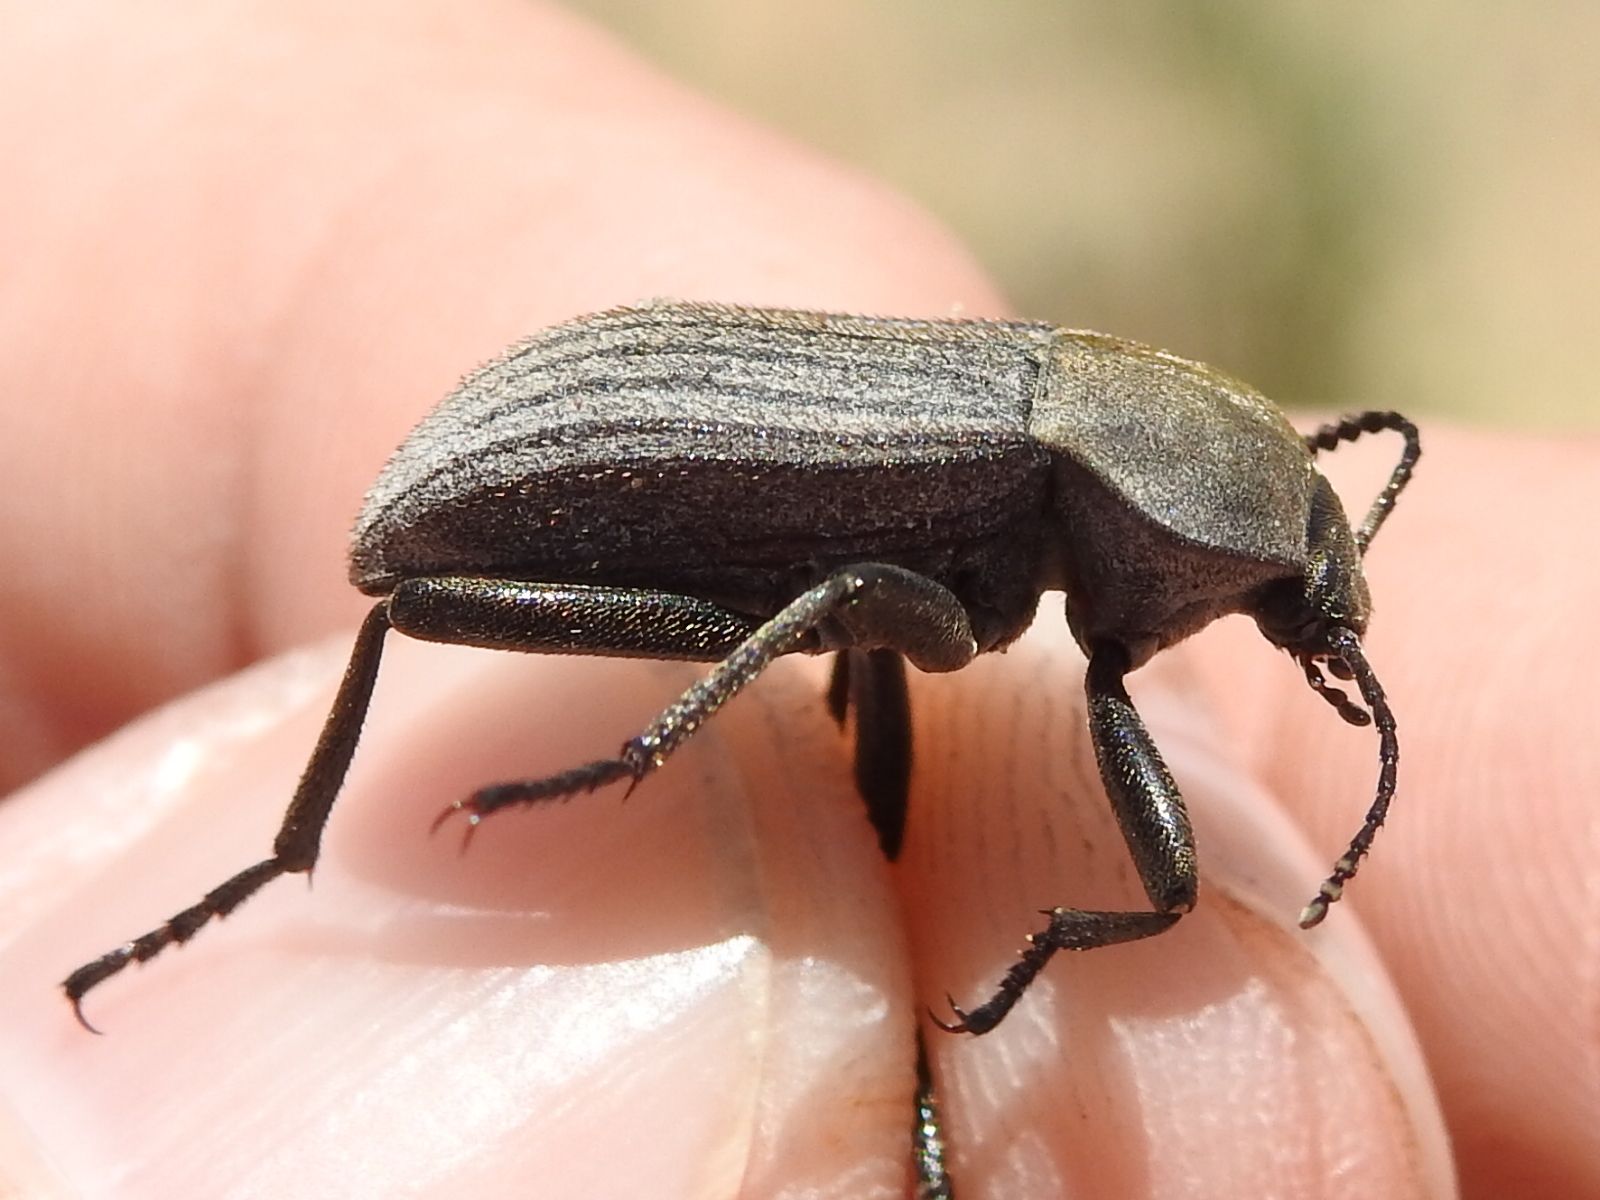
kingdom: Animalia
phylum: Arthropoda
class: Insecta
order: Coleoptera
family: Tenebrionidae
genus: Eleodes
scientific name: Eleodes tricostata
